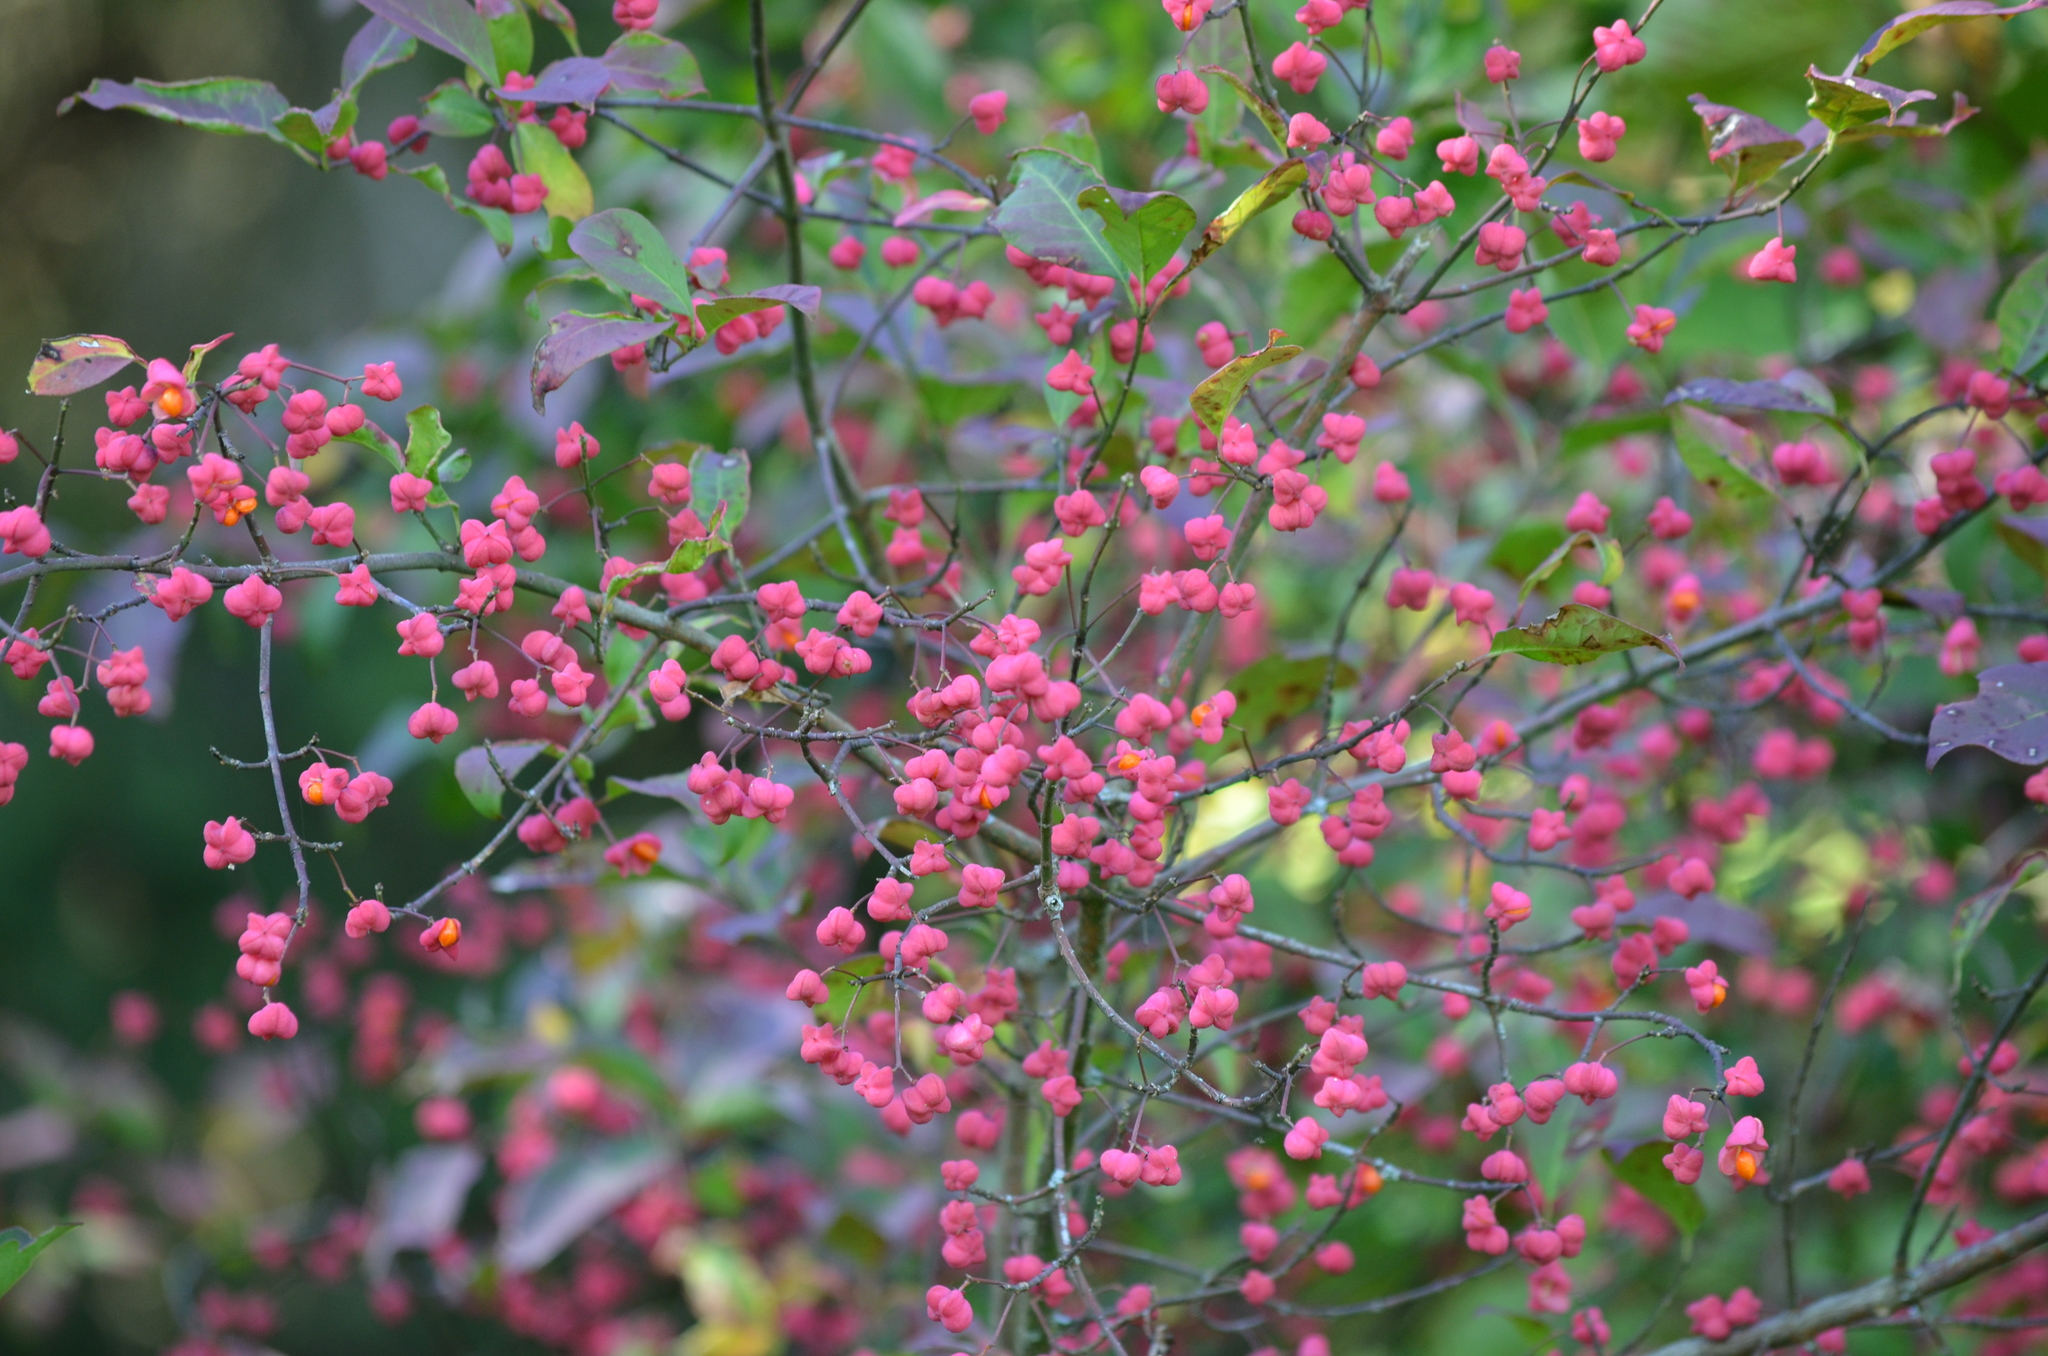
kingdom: Plantae
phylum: Tracheophyta
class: Magnoliopsida
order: Celastrales
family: Celastraceae
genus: Euonymus
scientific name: Euonymus europaeus
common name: Spindle
